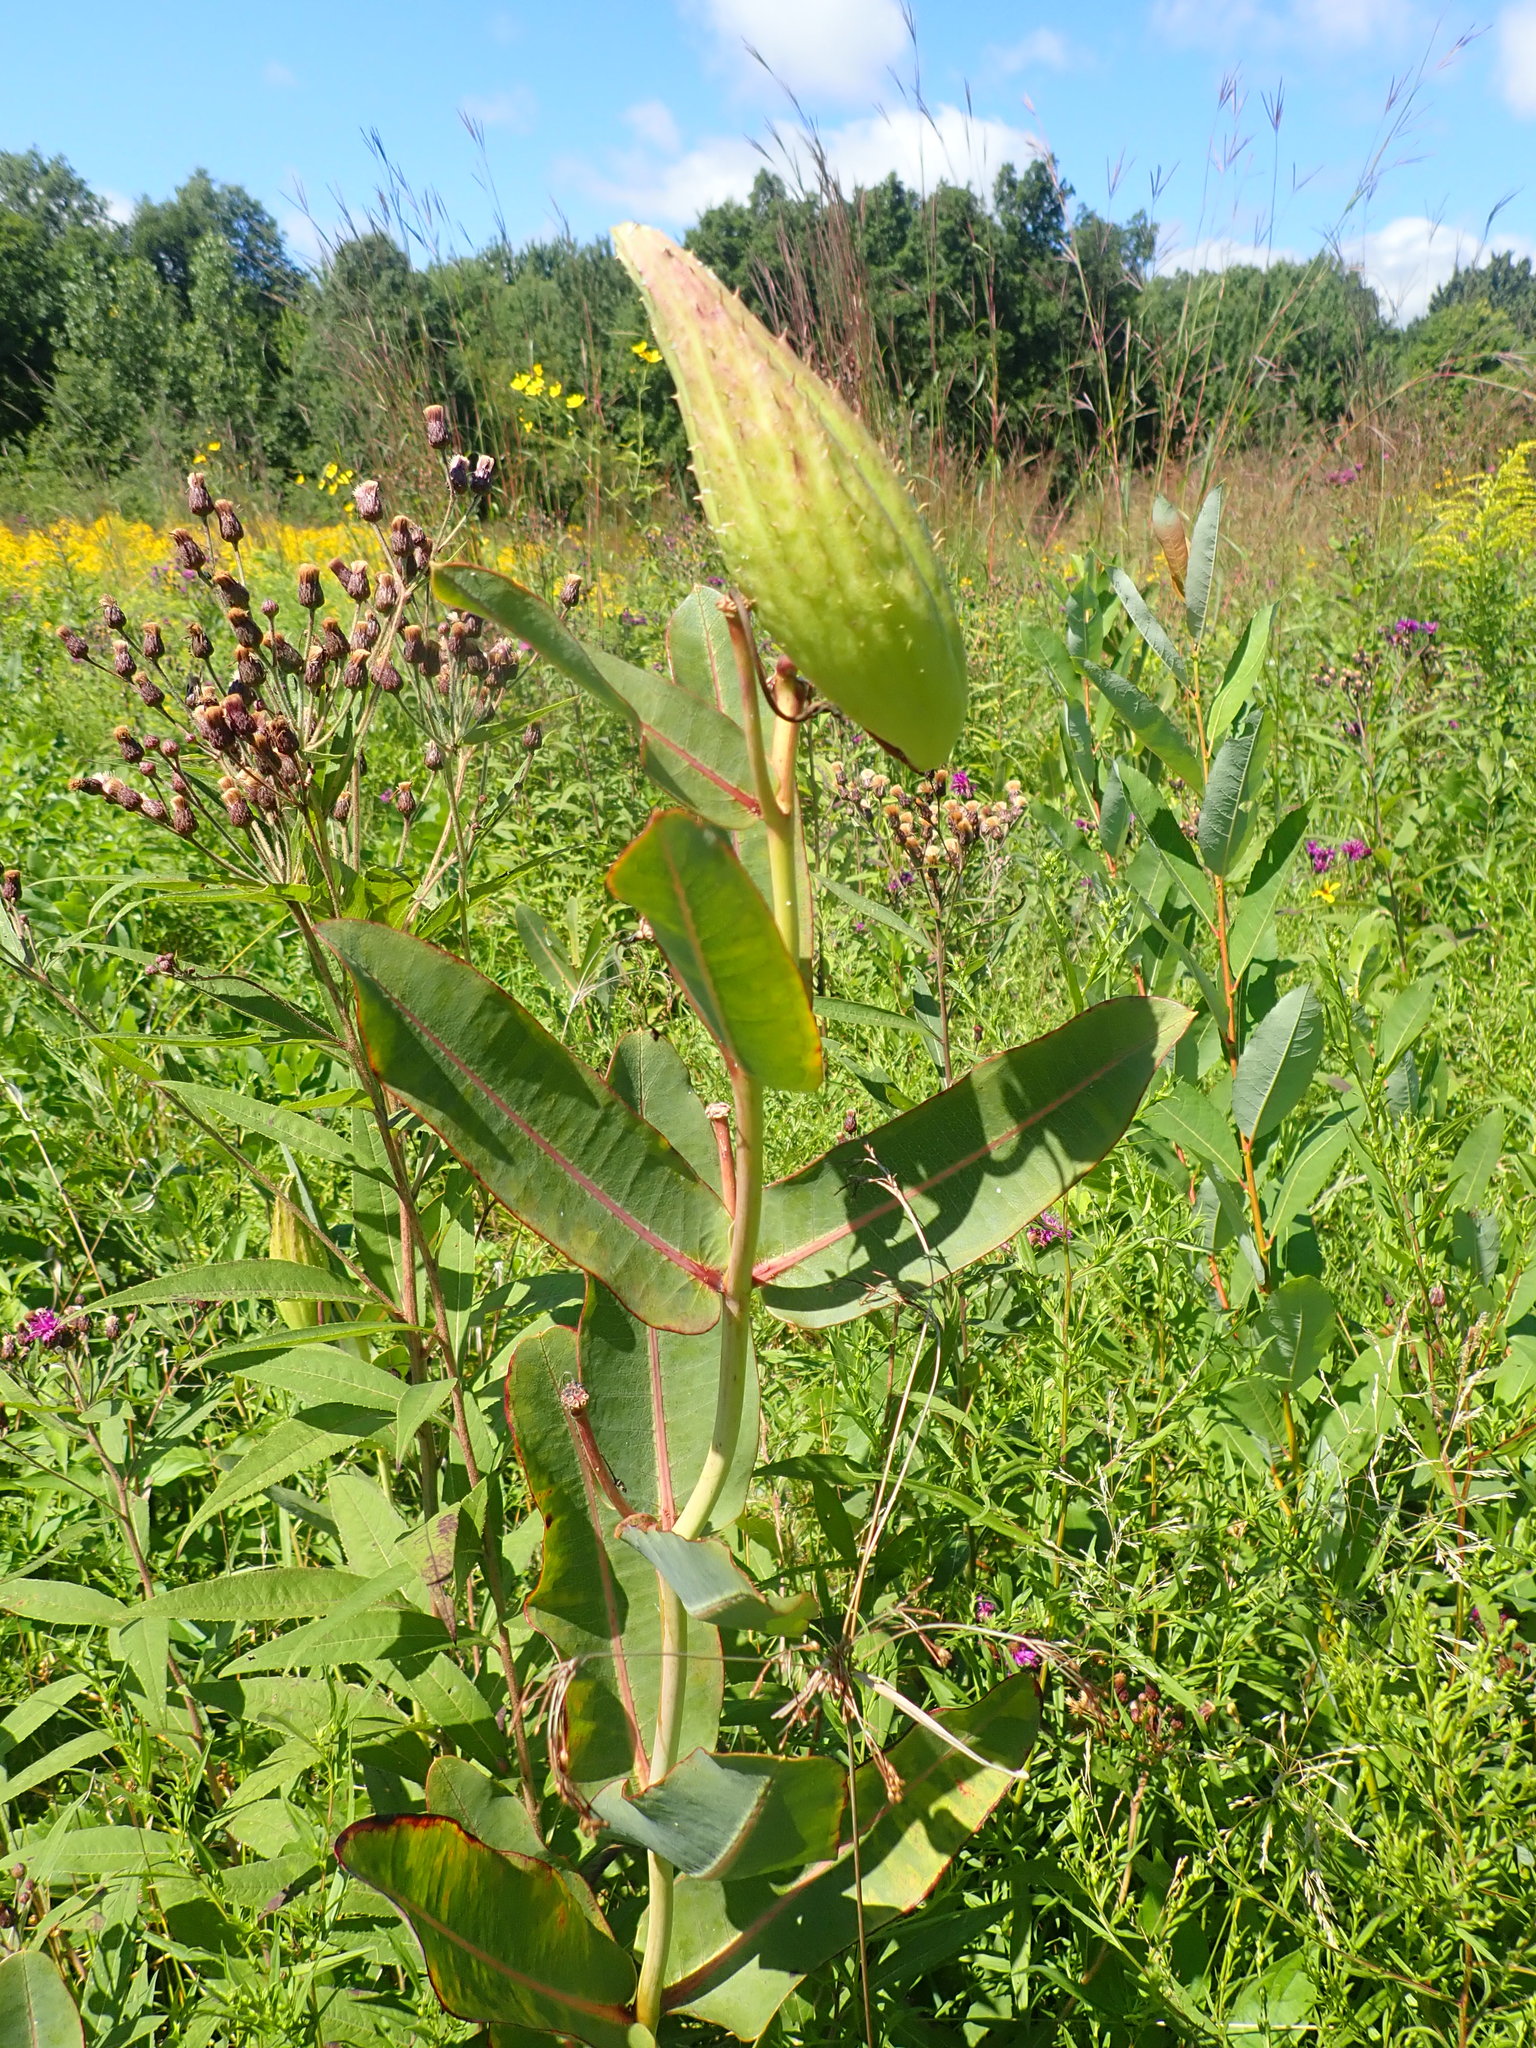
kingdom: Plantae
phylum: Tracheophyta
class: Magnoliopsida
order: Gentianales
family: Apocynaceae
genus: Asclepias
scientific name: Asclepias sullivantii
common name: Prairie milkweed
